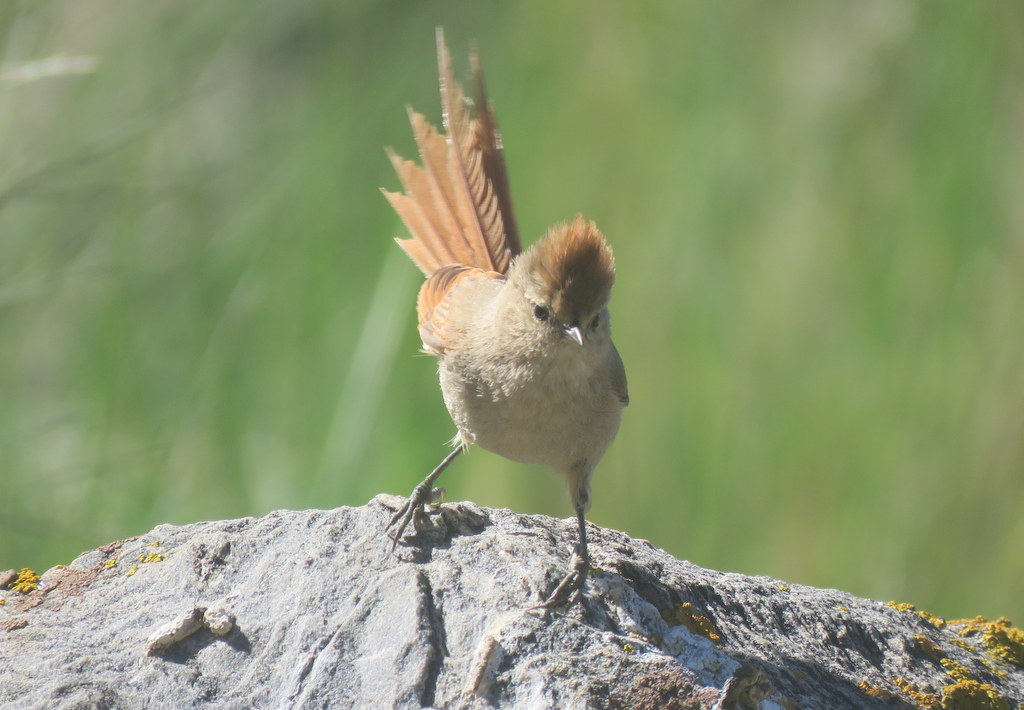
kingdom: Animalia
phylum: Chordata
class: Aves
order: Passeriformes
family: Furnariidae
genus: Leptasthenura
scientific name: Leptasthenura fuliginiceps
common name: Brown-capped tit-spinetail
